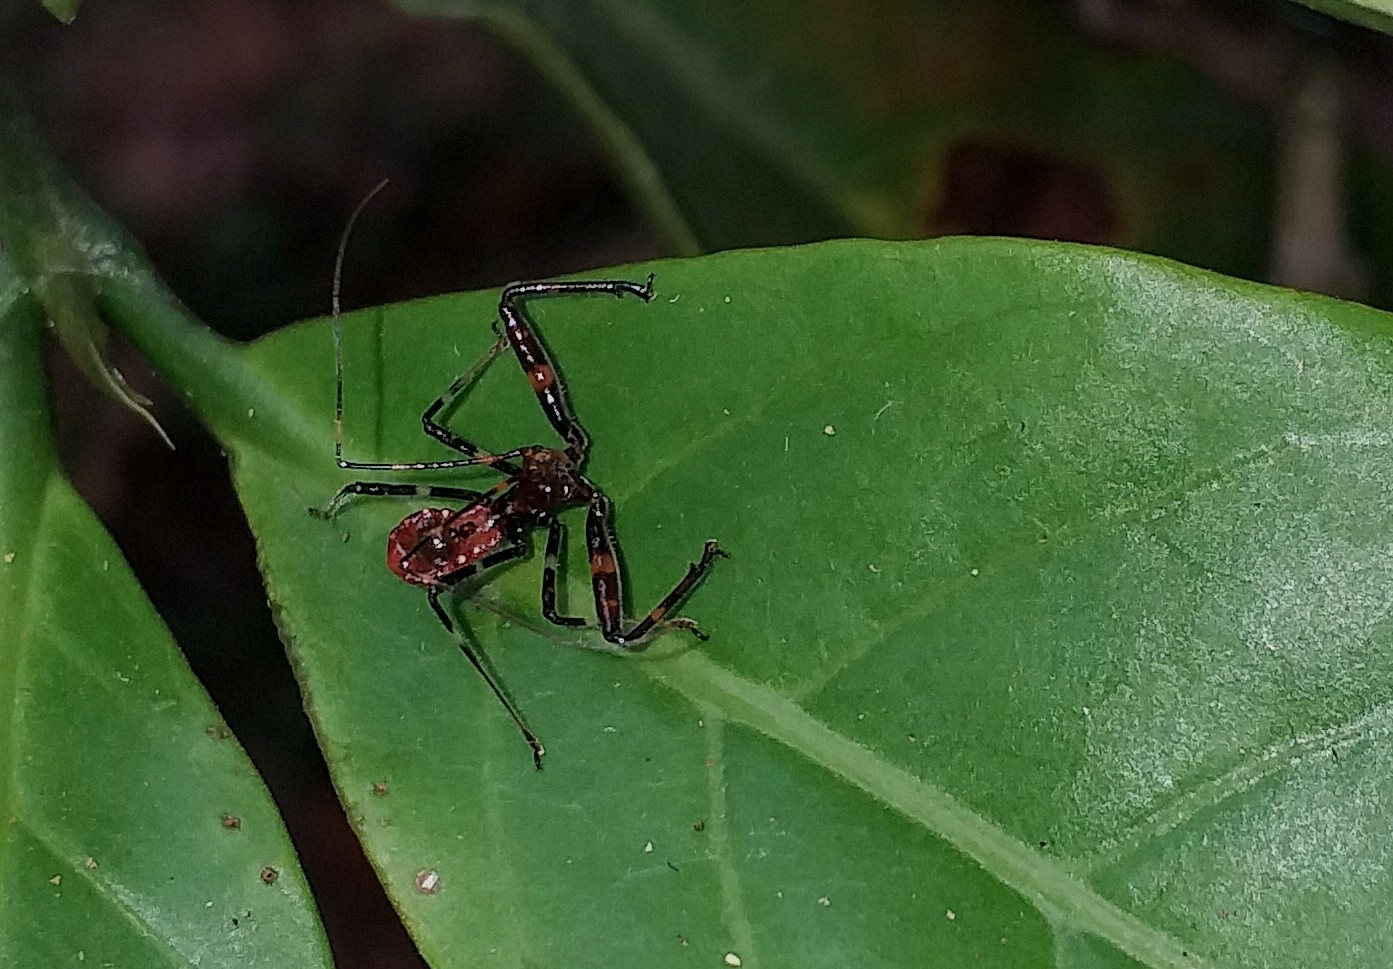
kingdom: Animalia
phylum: Arthropoda
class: Insecta
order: Hemiptera
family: Reduviidae
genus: Rihirbus
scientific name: Rihirbus trochantericus
